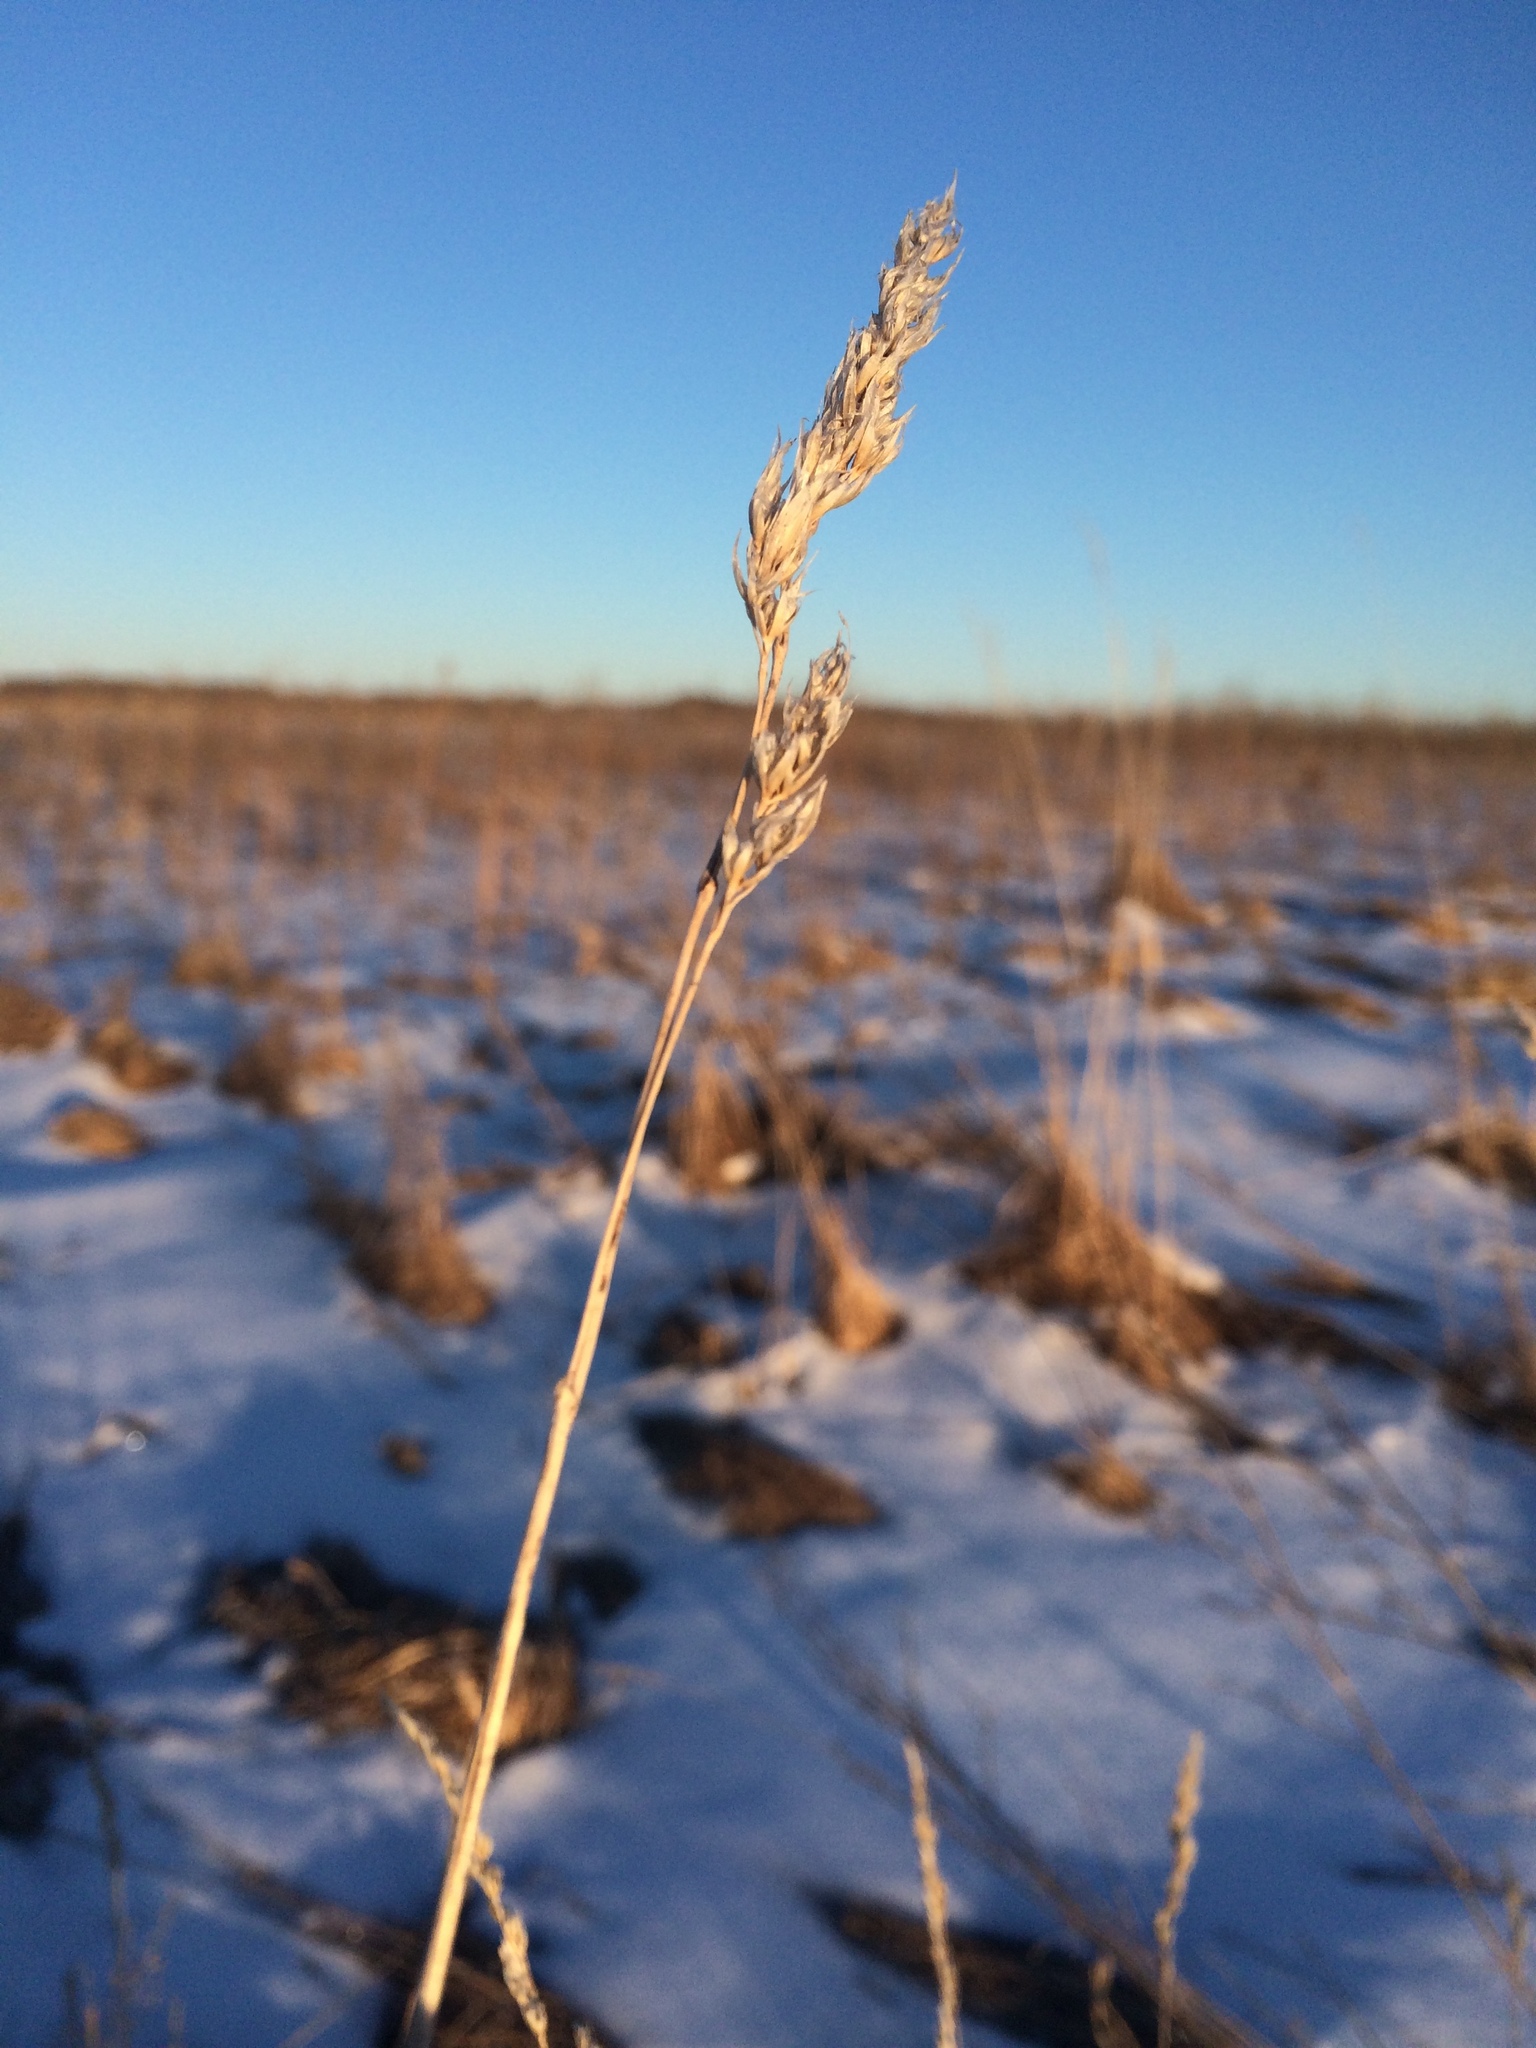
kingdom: Plantae
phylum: Tracheophyta
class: Liliopsida
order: Poales
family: Poaceae
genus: Dactylis
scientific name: Dactylis glomerata
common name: Orchardgrass
